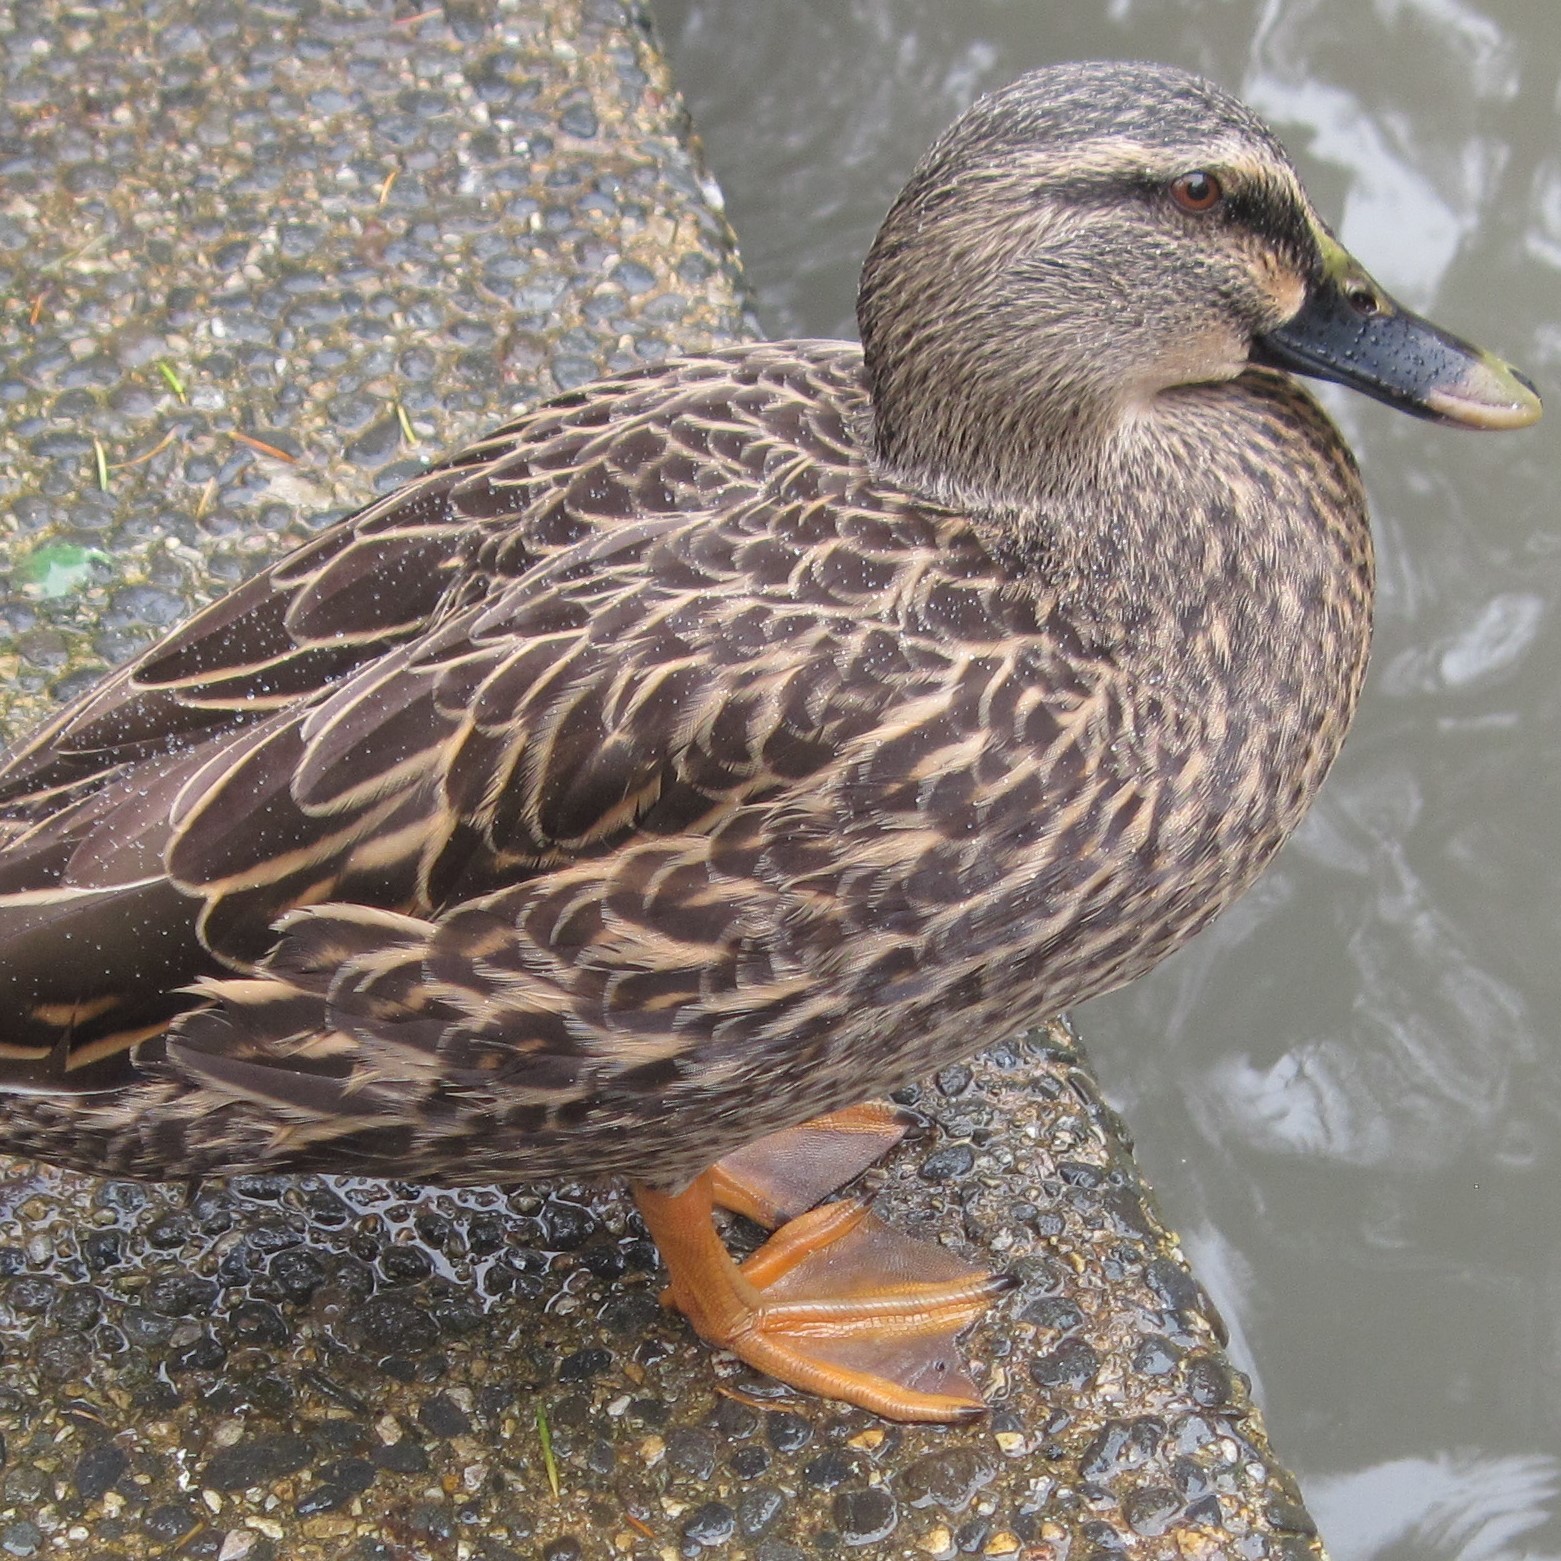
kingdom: Animalia
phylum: Chordata
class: Aves
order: Anseriformes
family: Anatidae
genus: Anas
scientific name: Anas platyrhynchos
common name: Mallard
